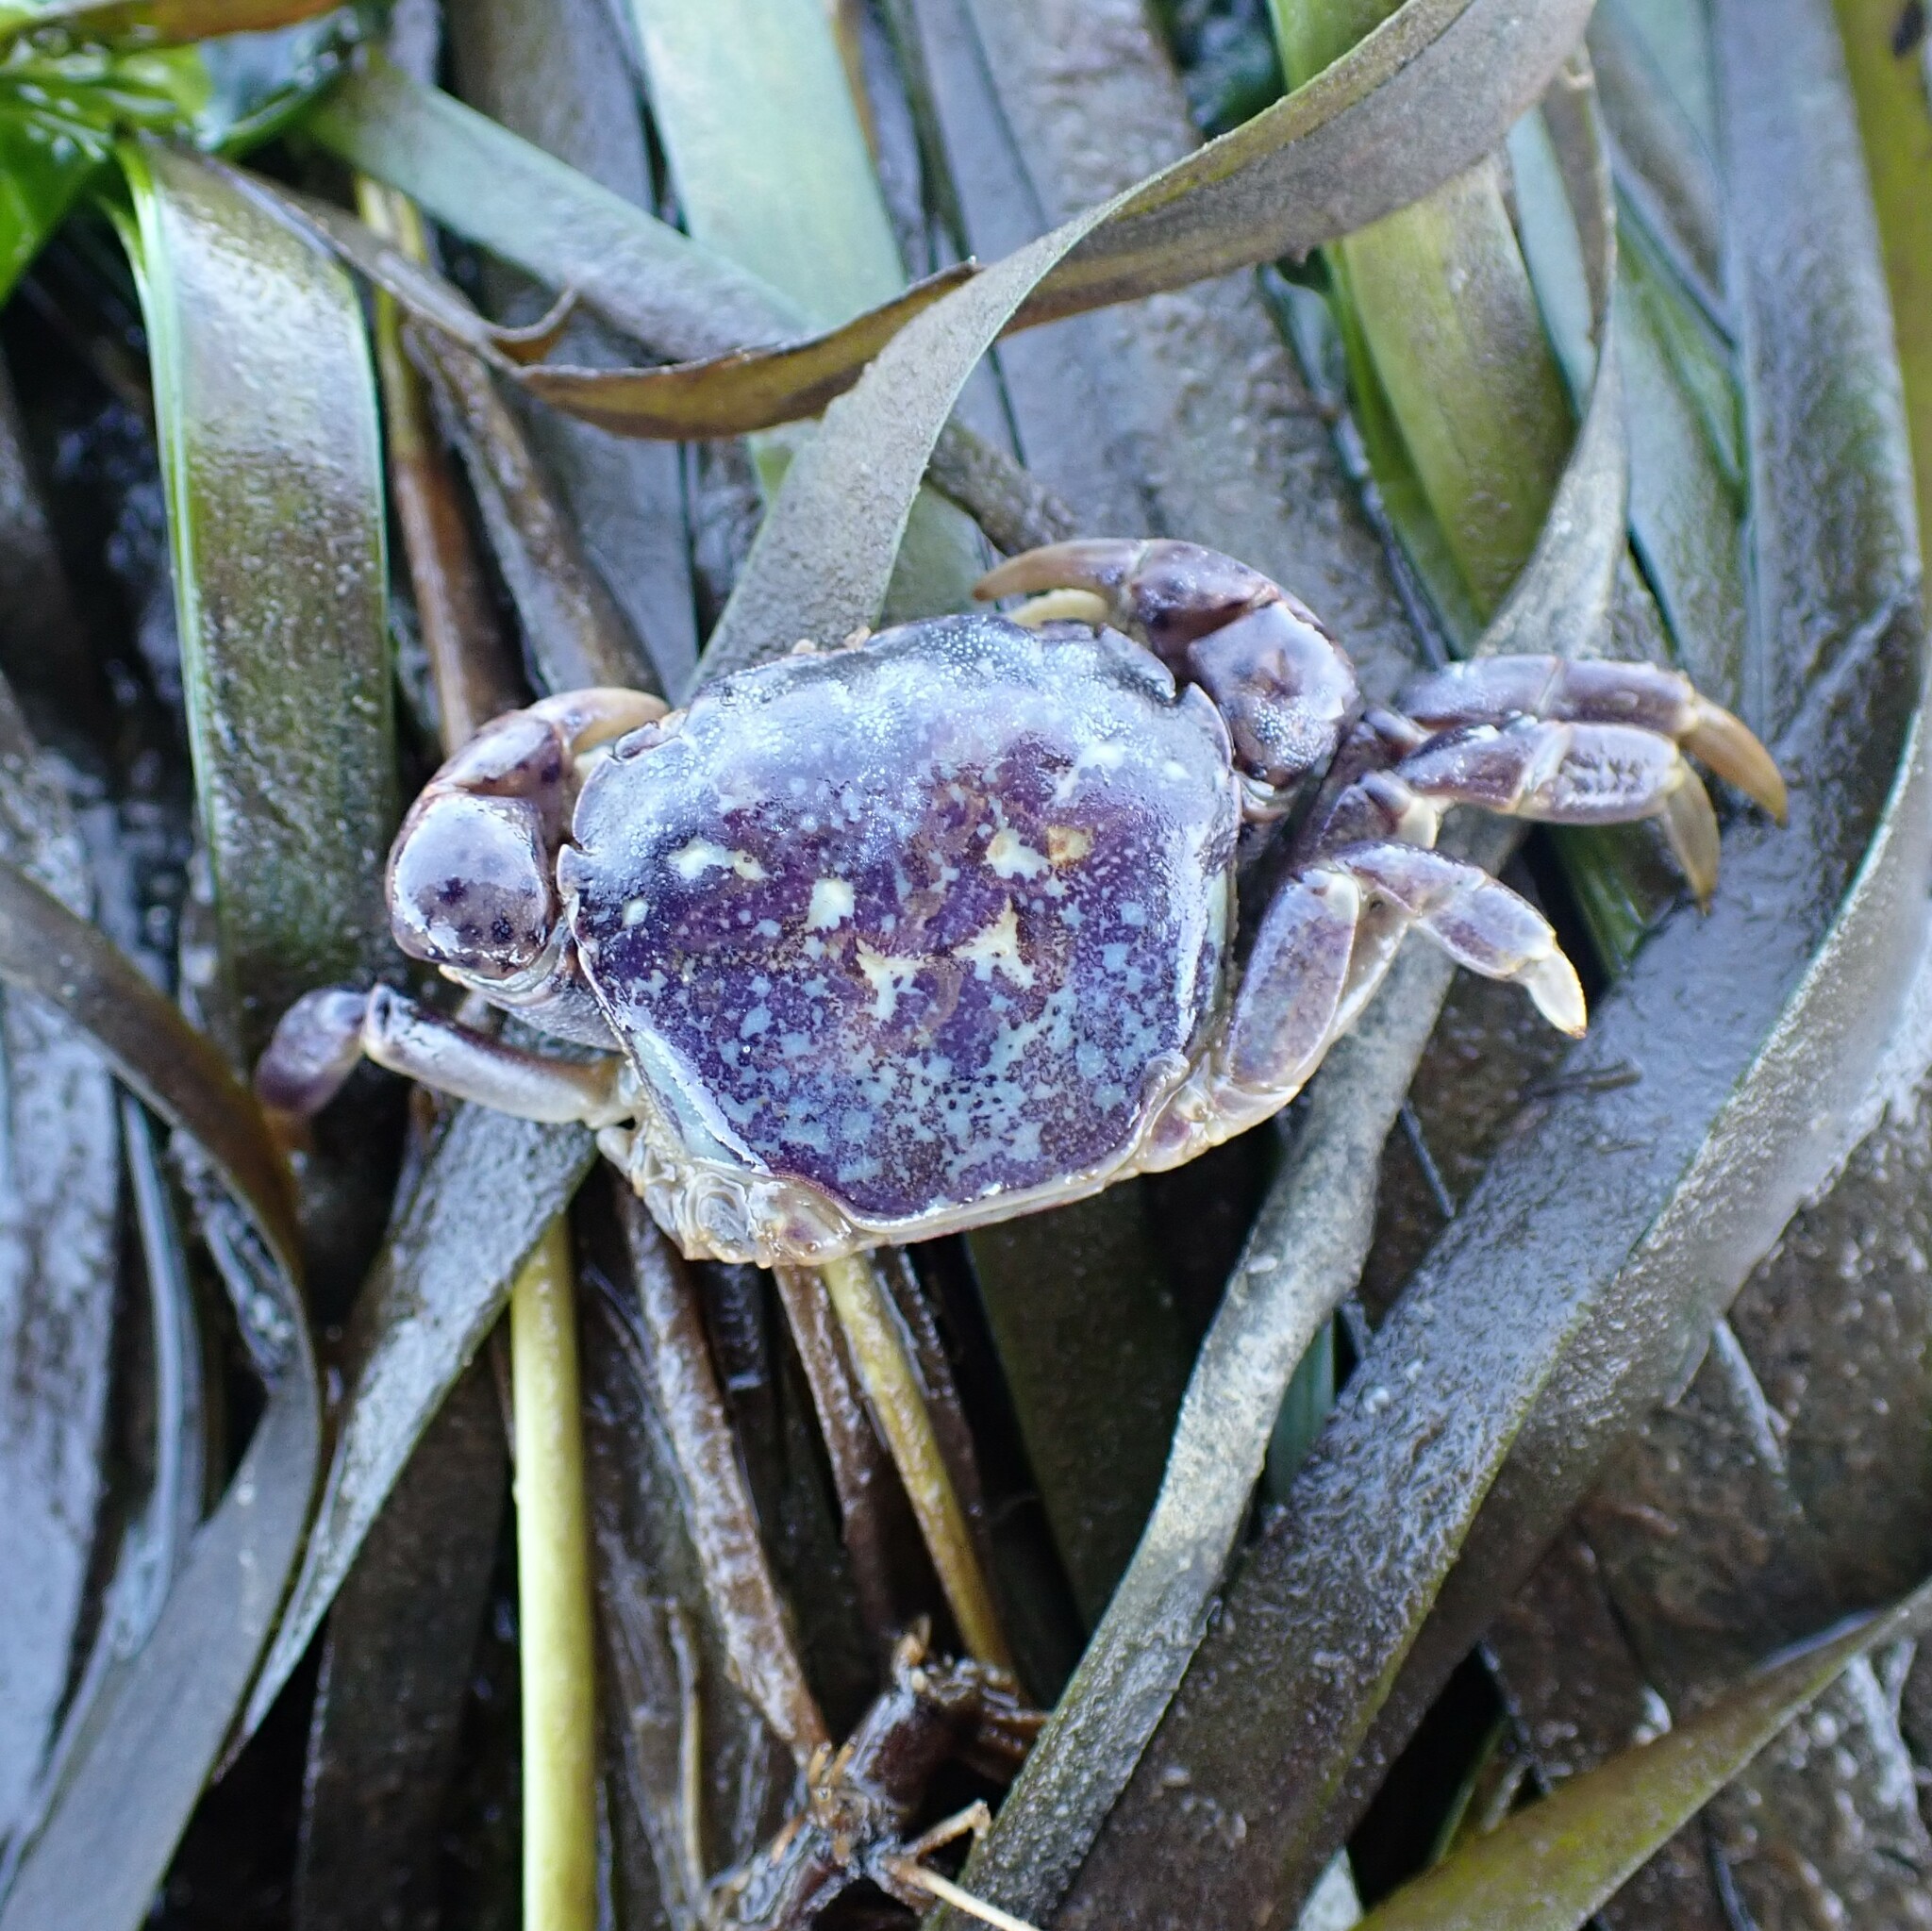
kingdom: Animalia
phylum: Arthropoda
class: Malacostraca
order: Decapoda
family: Varunidae
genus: Hemigrapsus
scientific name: Hemigrapsus nudus
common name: Purple shore crab
